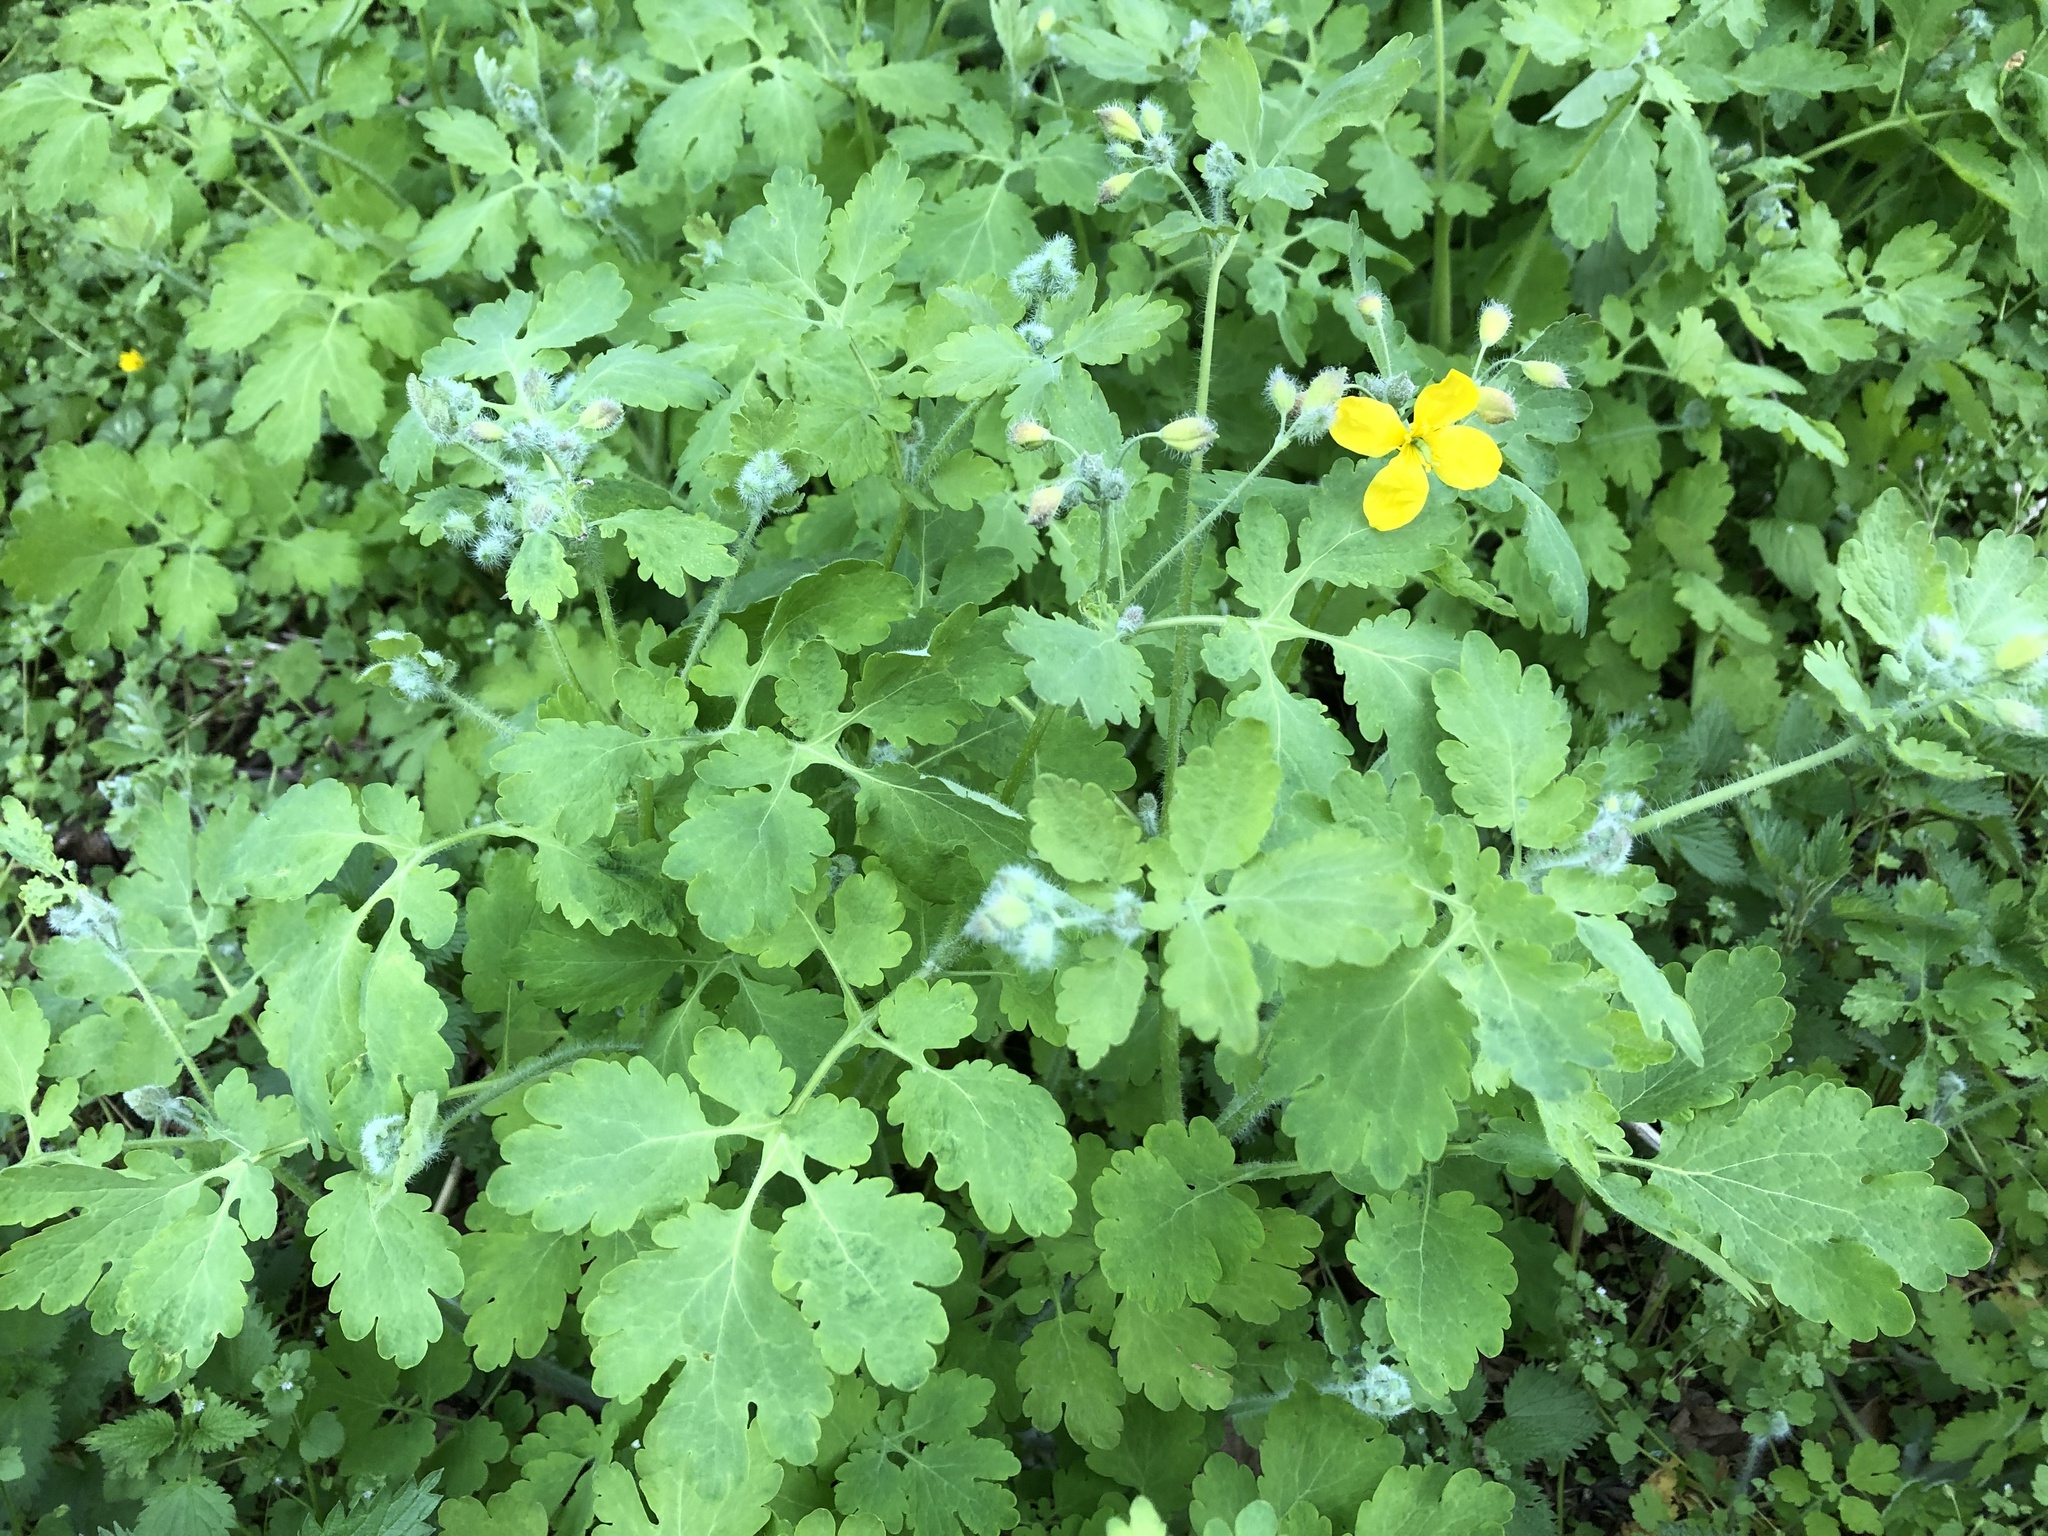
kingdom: Plantae
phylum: Tracheophyta
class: Magnoliopsida
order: Ranunculales
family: Papaveraceae
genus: Chelidonium
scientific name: Chelidonium majus
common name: Greater celandine
